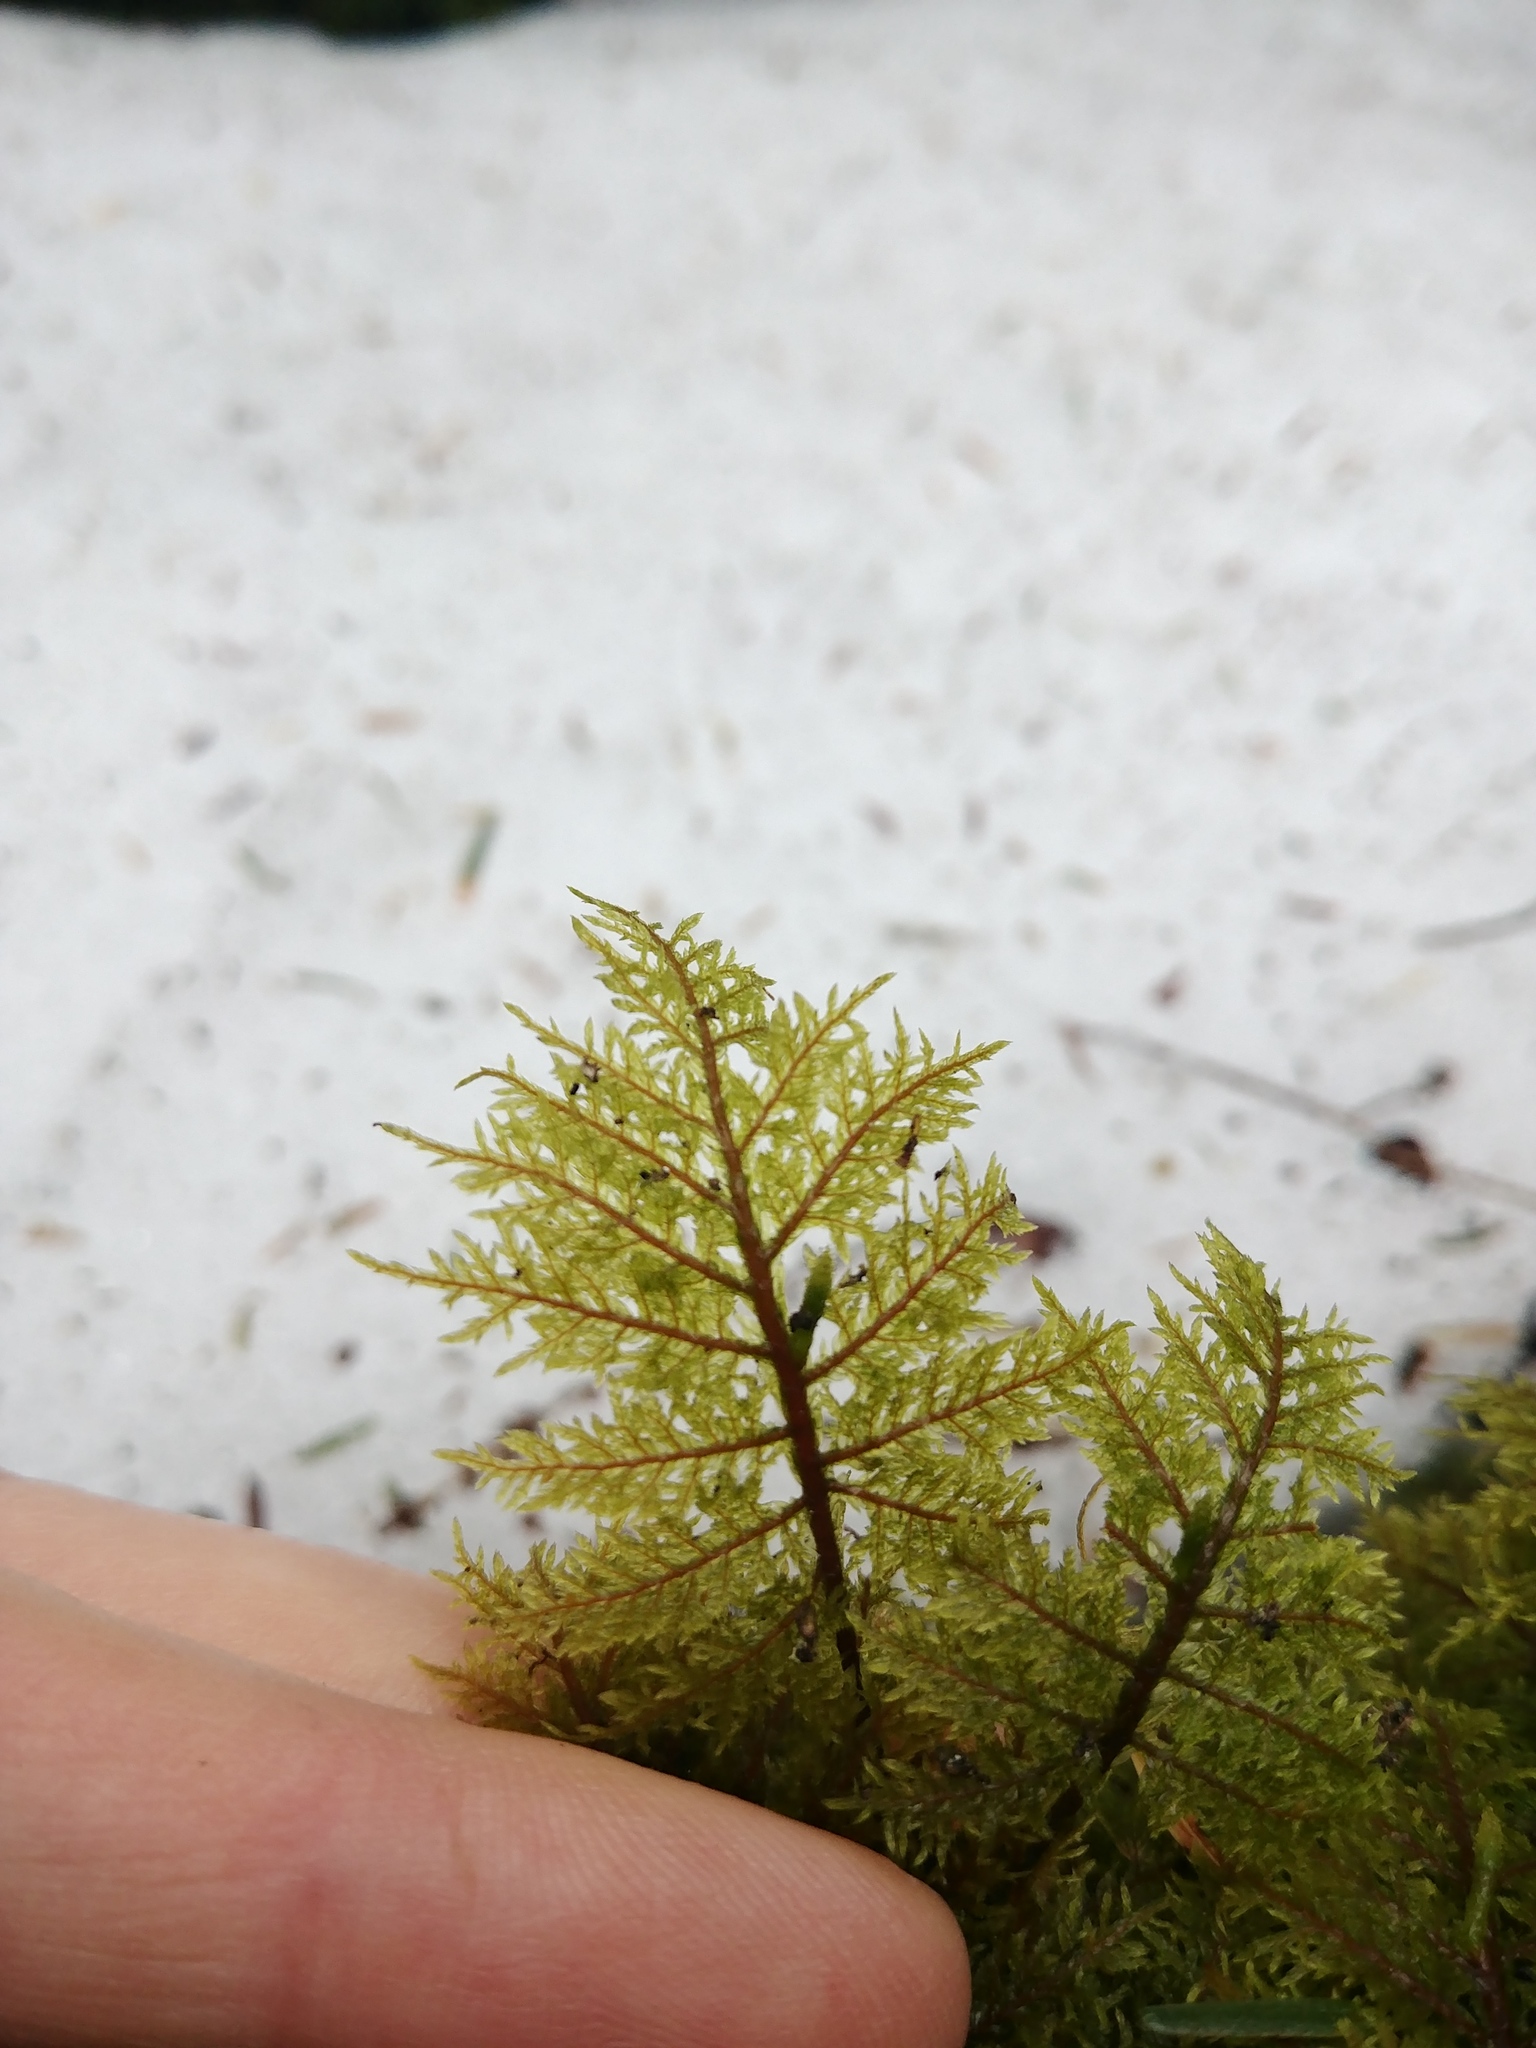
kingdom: Plantae
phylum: Bryophyta
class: Bryopsida
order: Hypnales
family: Hylocomiaceae
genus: Hylocomium
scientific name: Hylocomium splendens
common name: Stairstep moss
